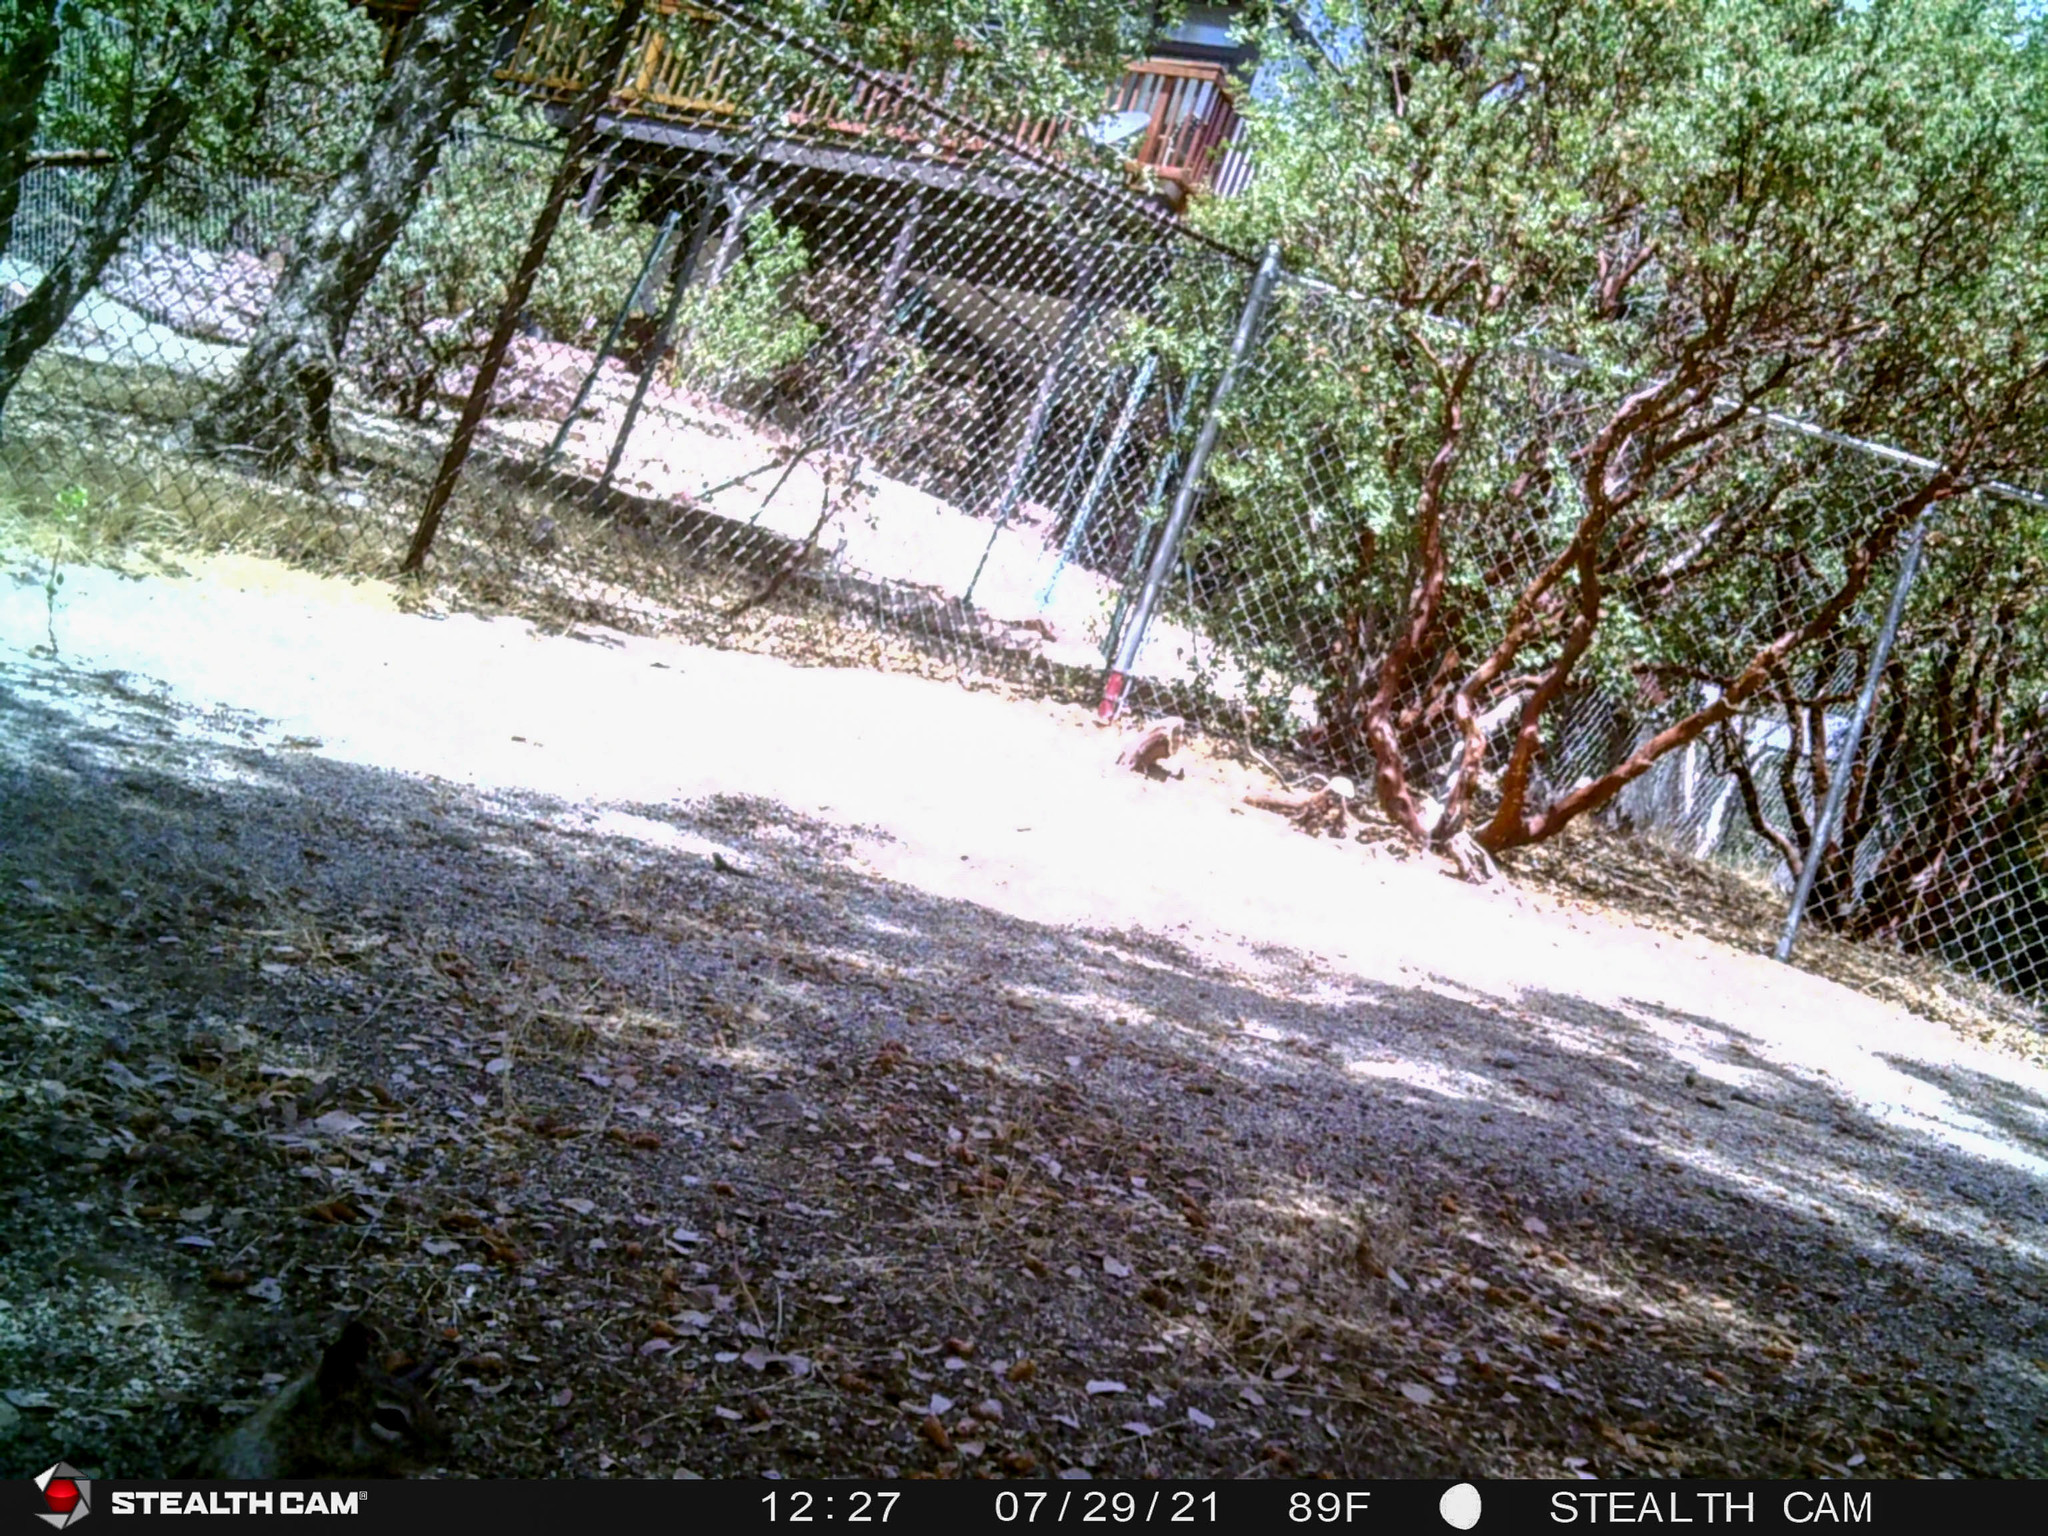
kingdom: Animalia
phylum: Chordata
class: Mammalia
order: Rodentia
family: Sciuridae
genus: Otospermophilus
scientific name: Otospermophilus beecheyi
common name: California ground squirrel
